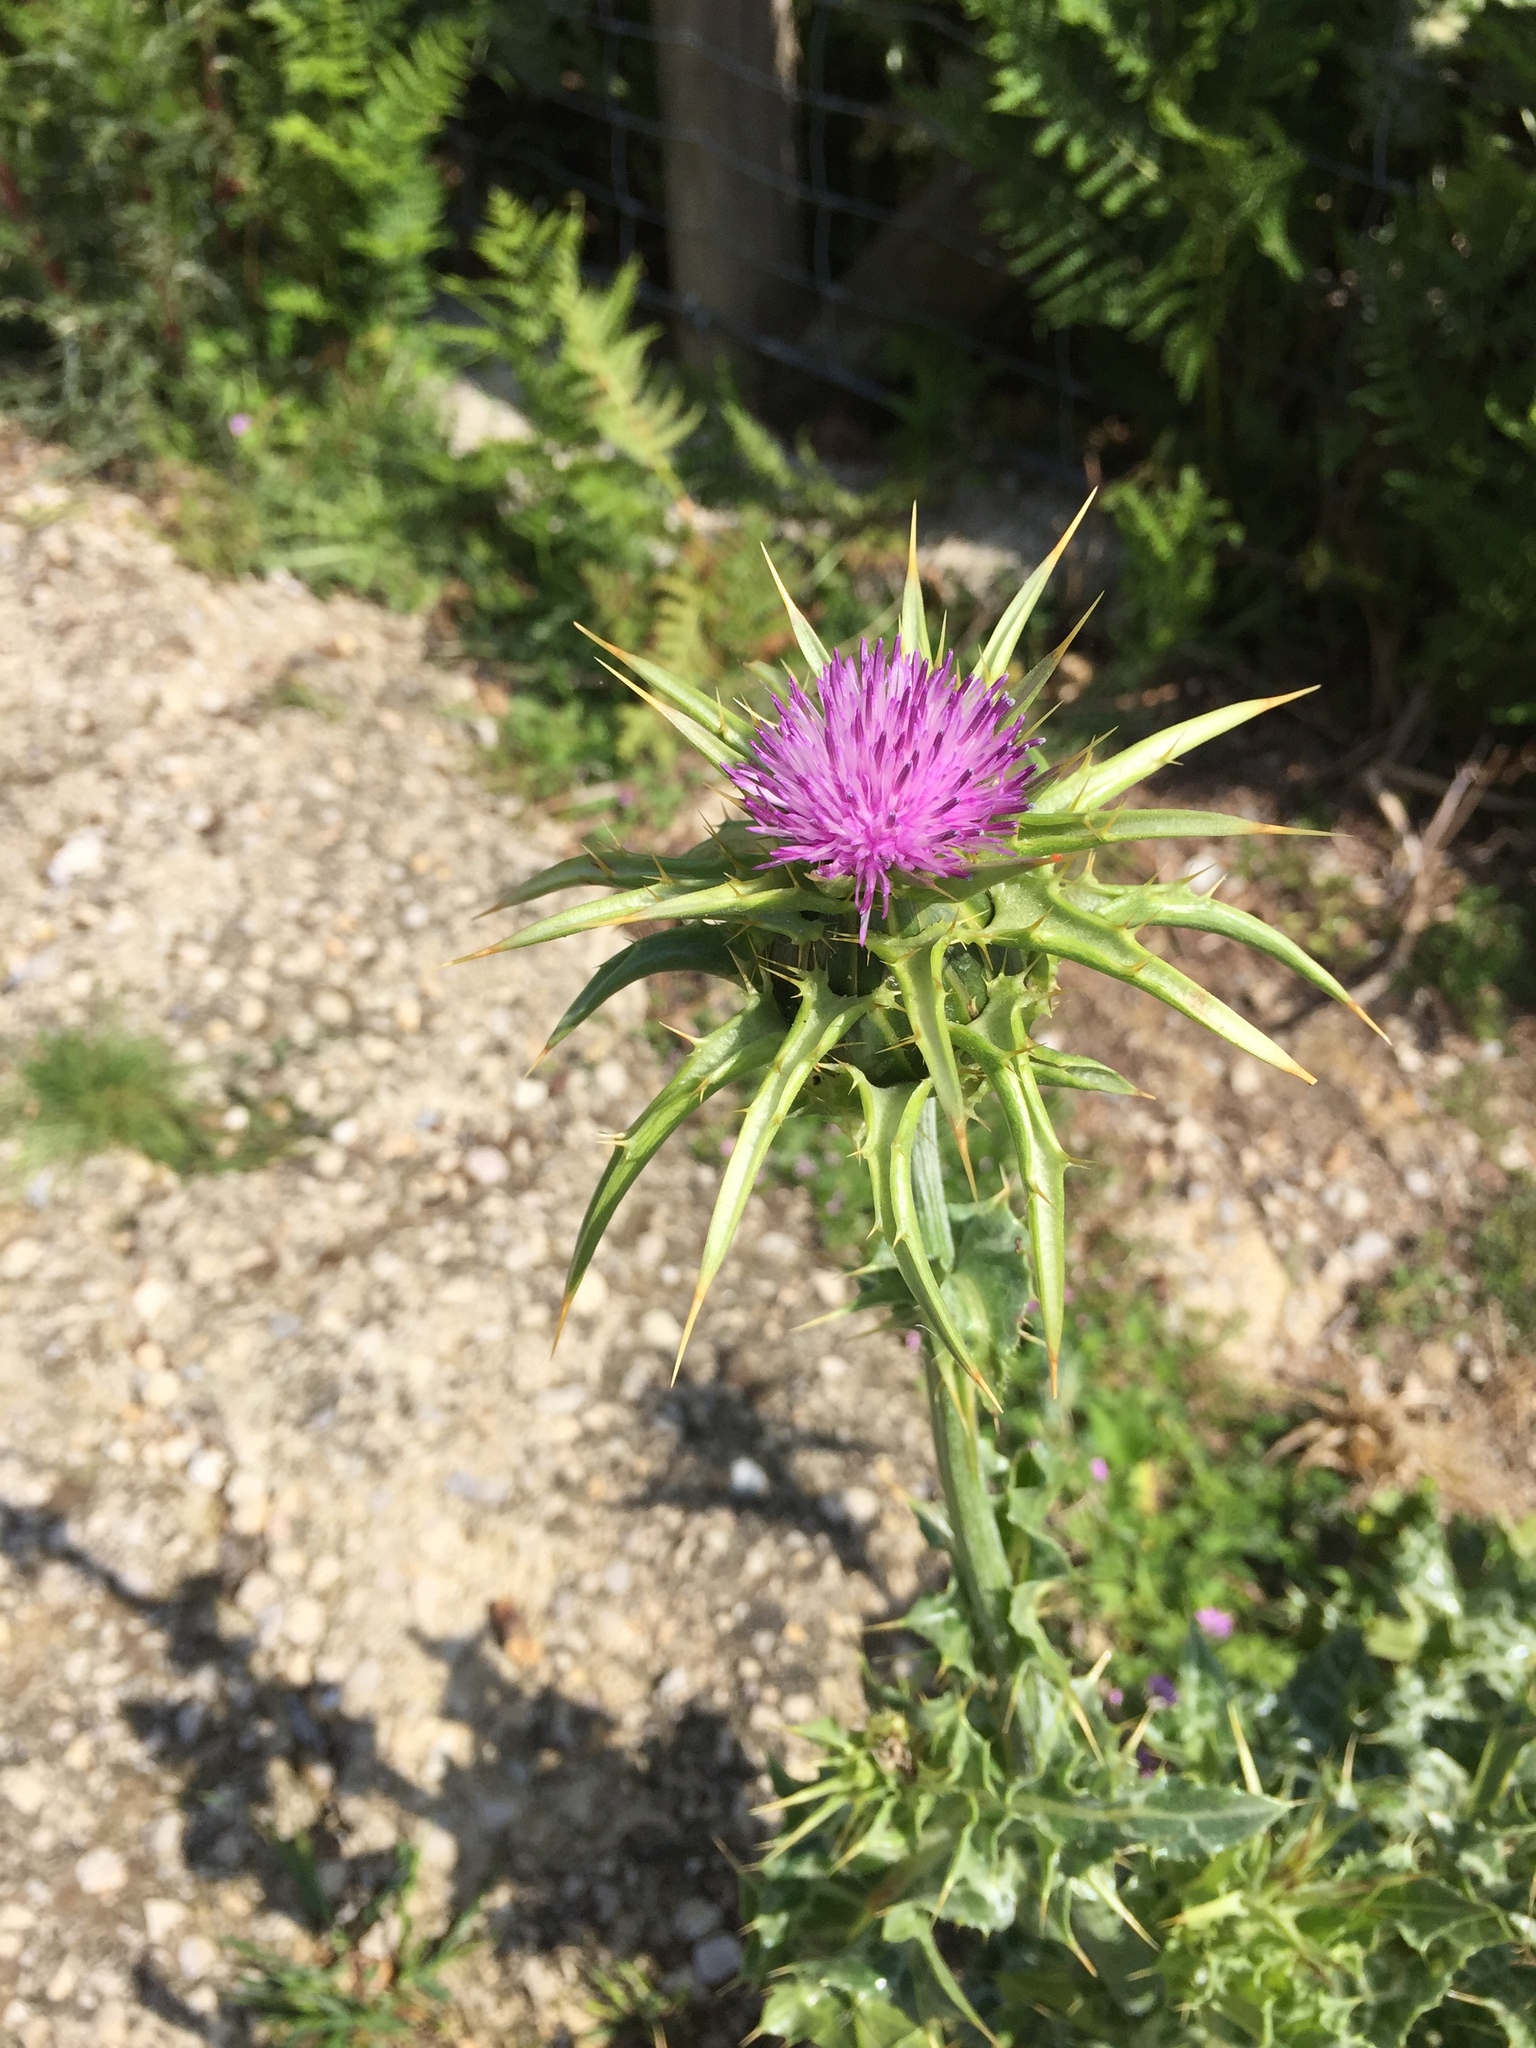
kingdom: Plantae
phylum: Tracheophyta
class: Magnoliopsida
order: Asterales
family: Asteraceae
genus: Silybum
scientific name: Silybum marianum
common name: Milk thistle
